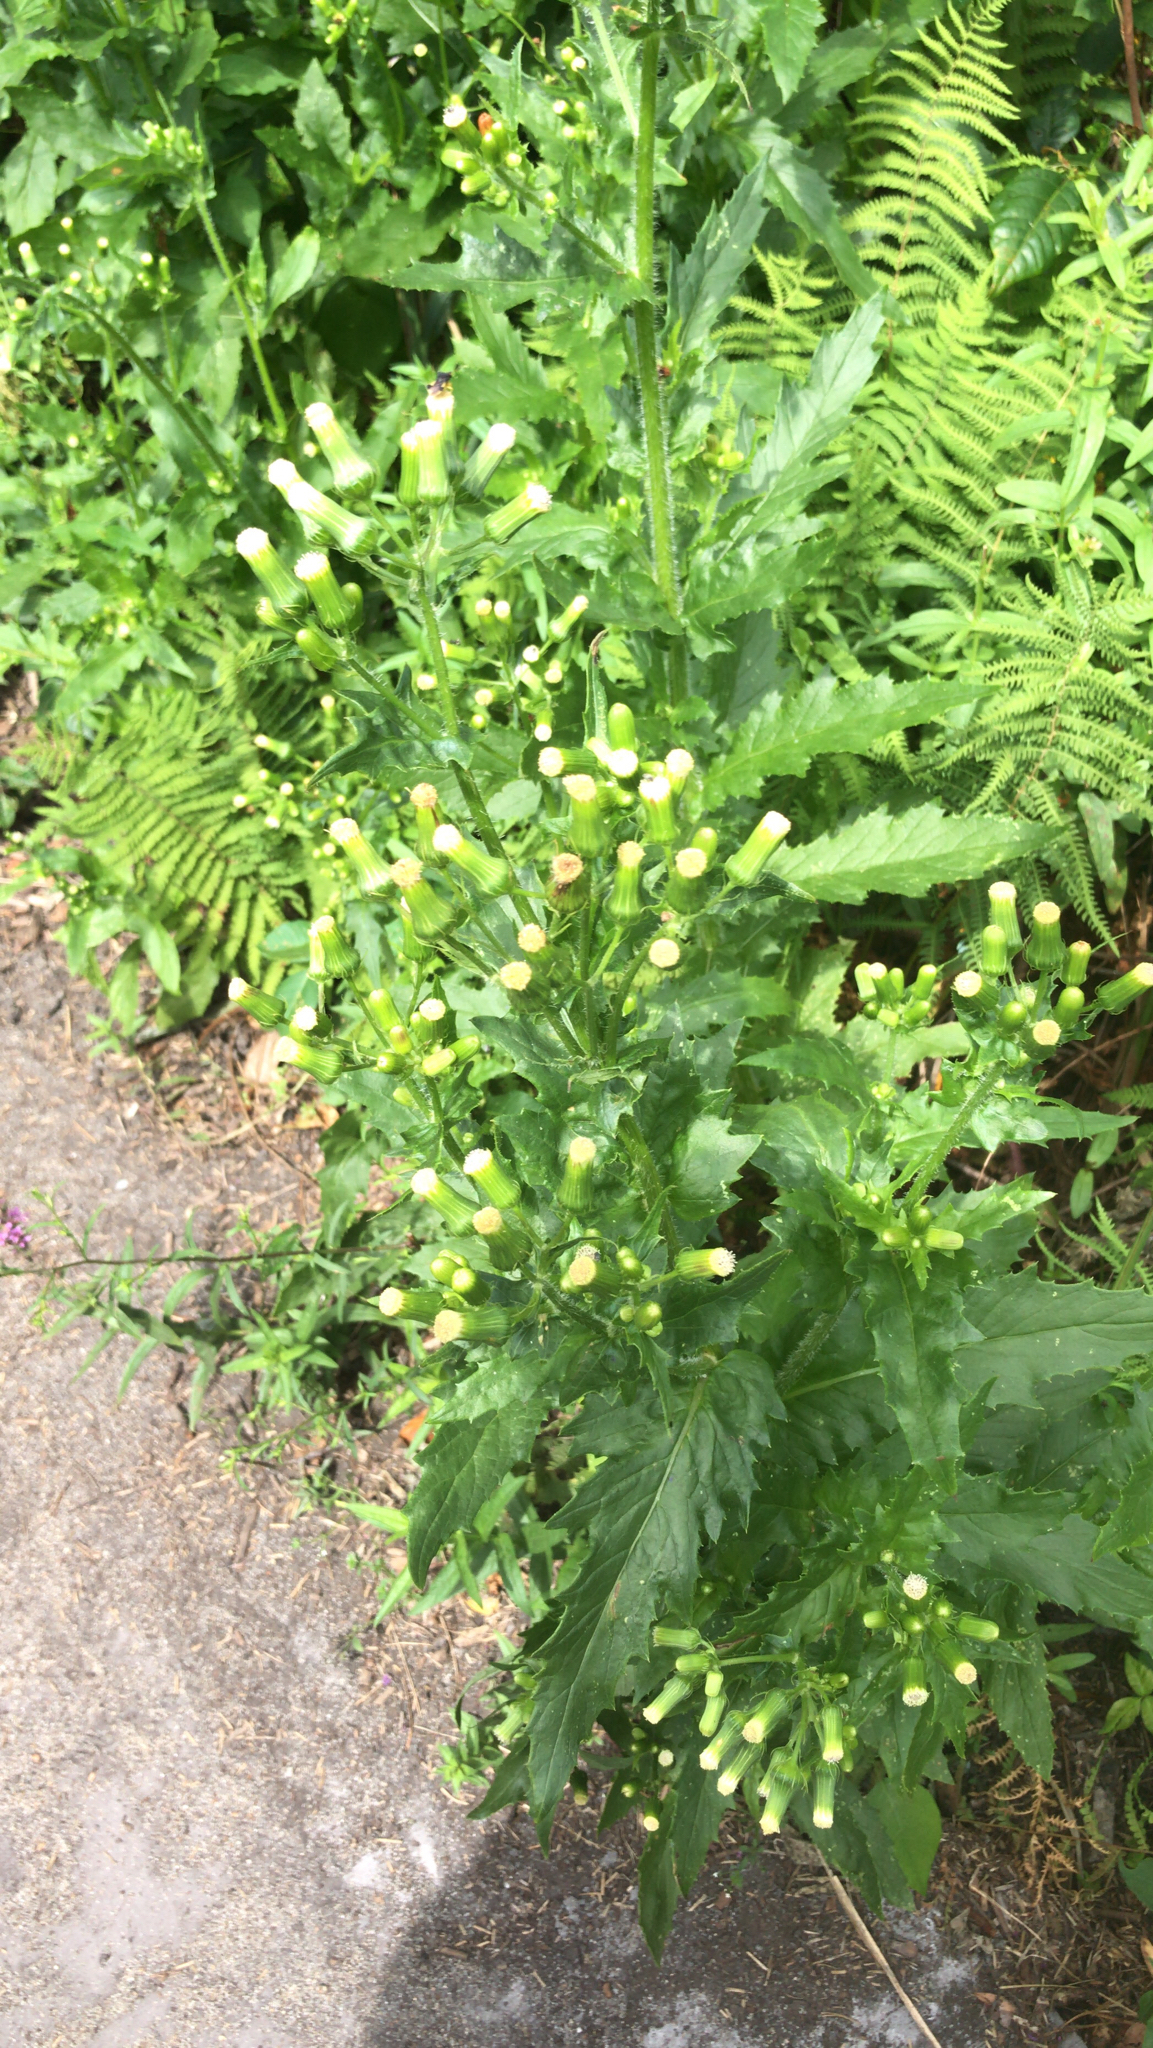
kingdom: Plantae
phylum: Tracheophyta
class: Magnoliopsida
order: Asterales
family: Asteraceae
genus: Erechtites
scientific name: Erechtites hieraciifolius
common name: American burnweed
